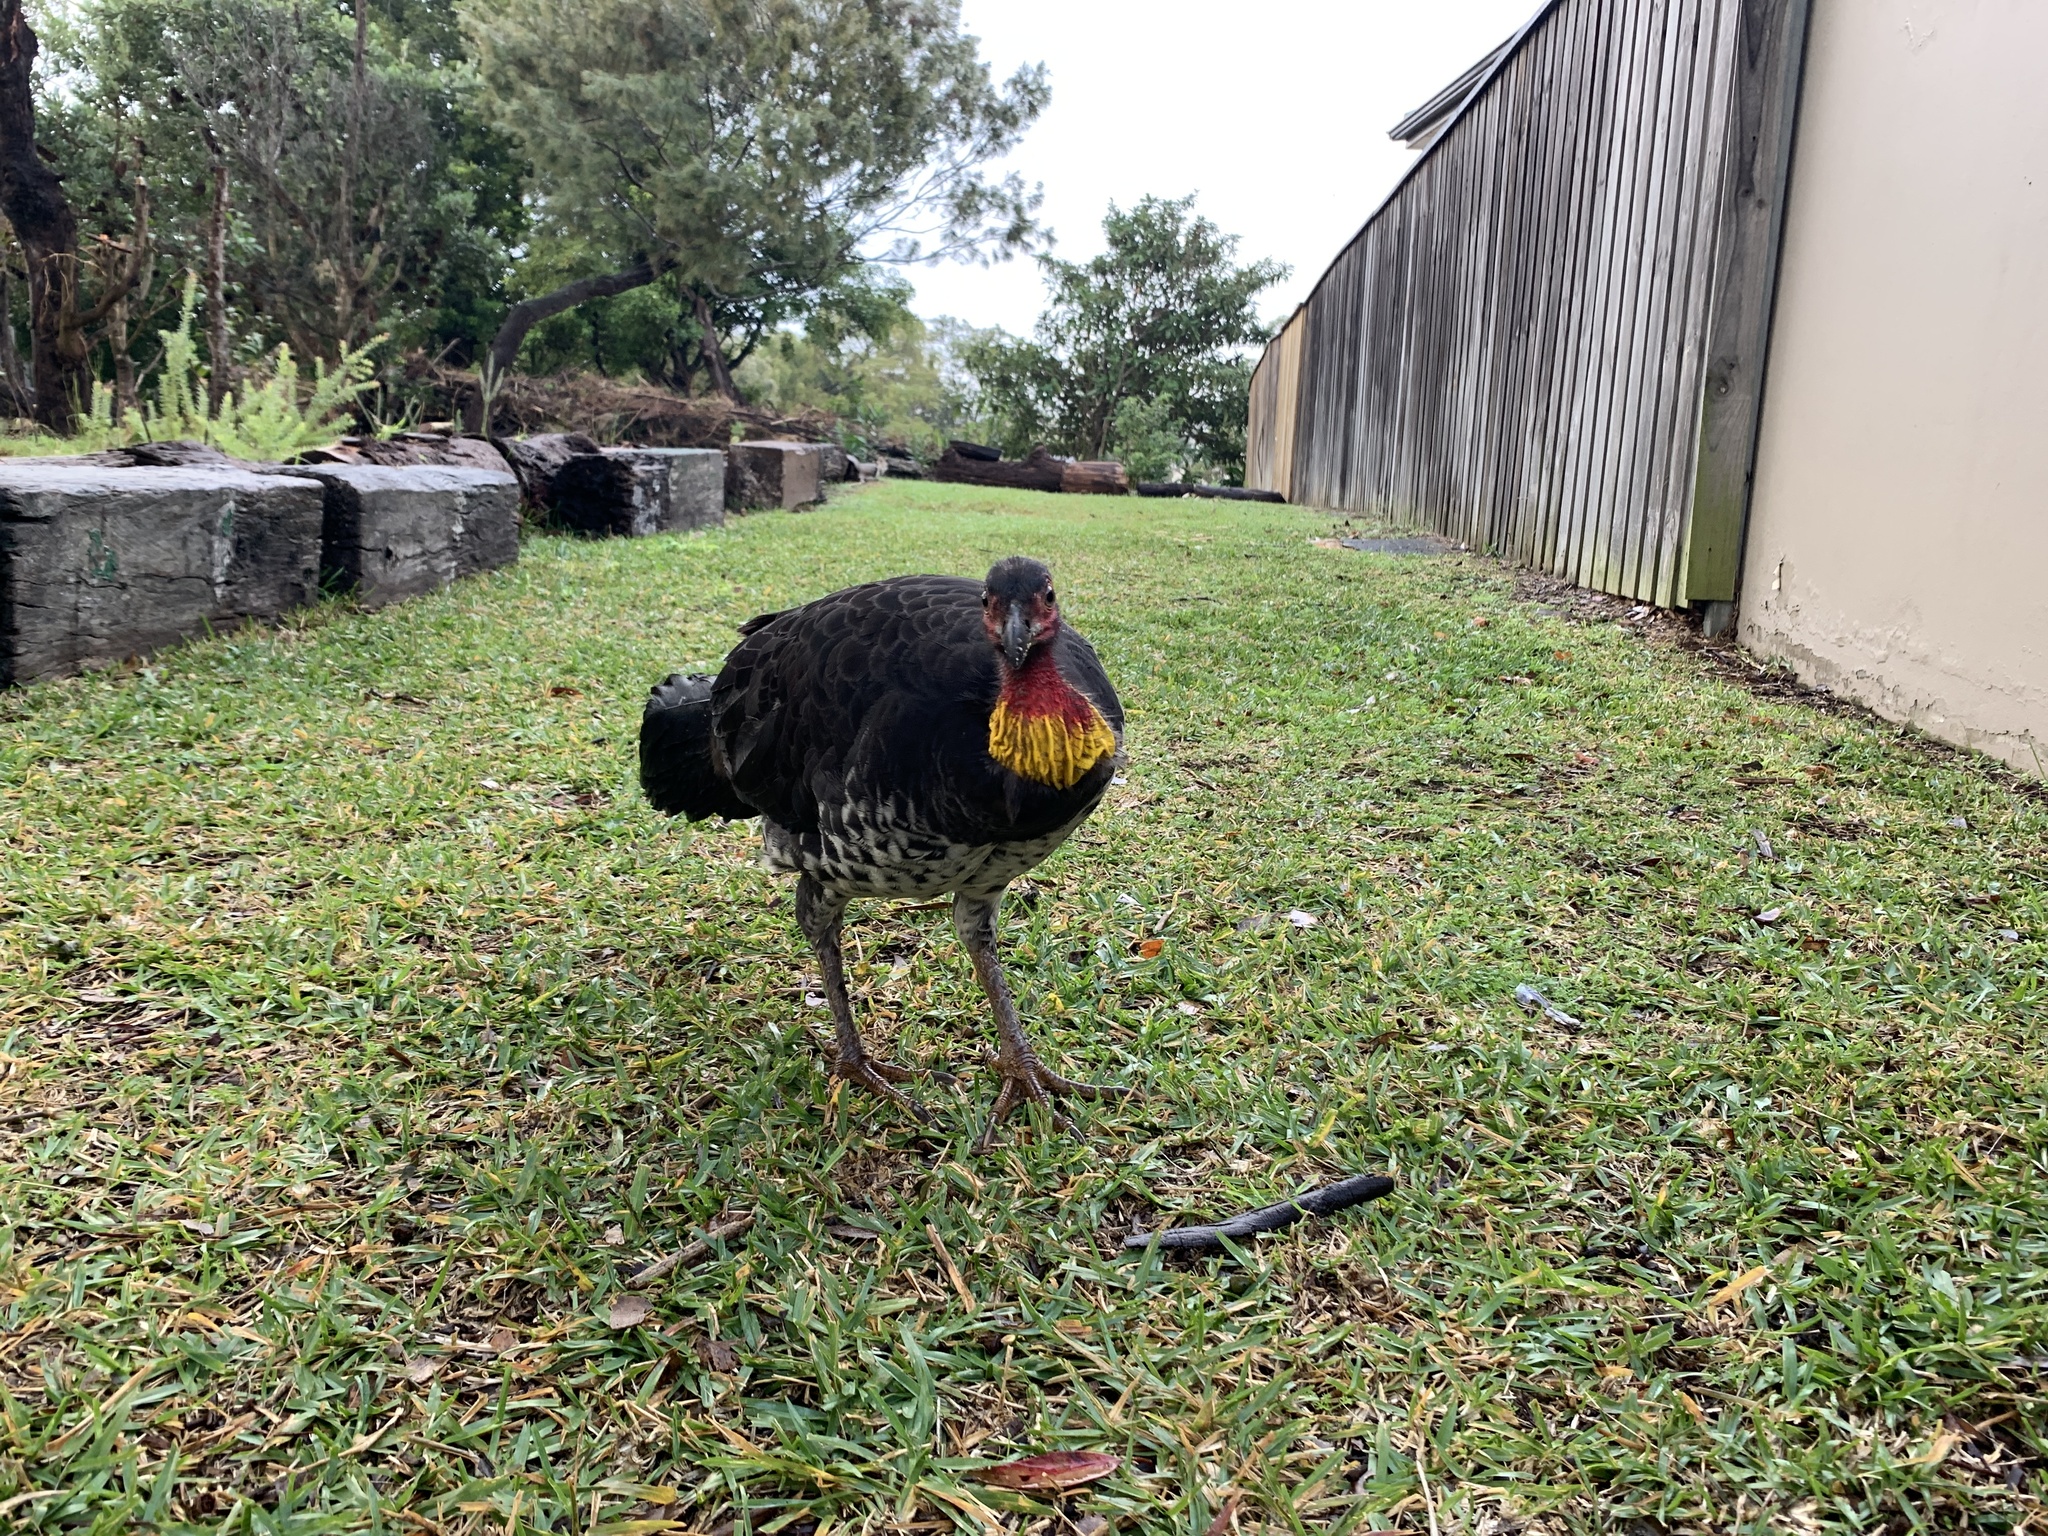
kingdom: Animalia
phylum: Chordata
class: Aves
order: Galliformes
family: Megapodiidae
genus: Alectura
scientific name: Alectura lathami
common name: Australian brushturkey
